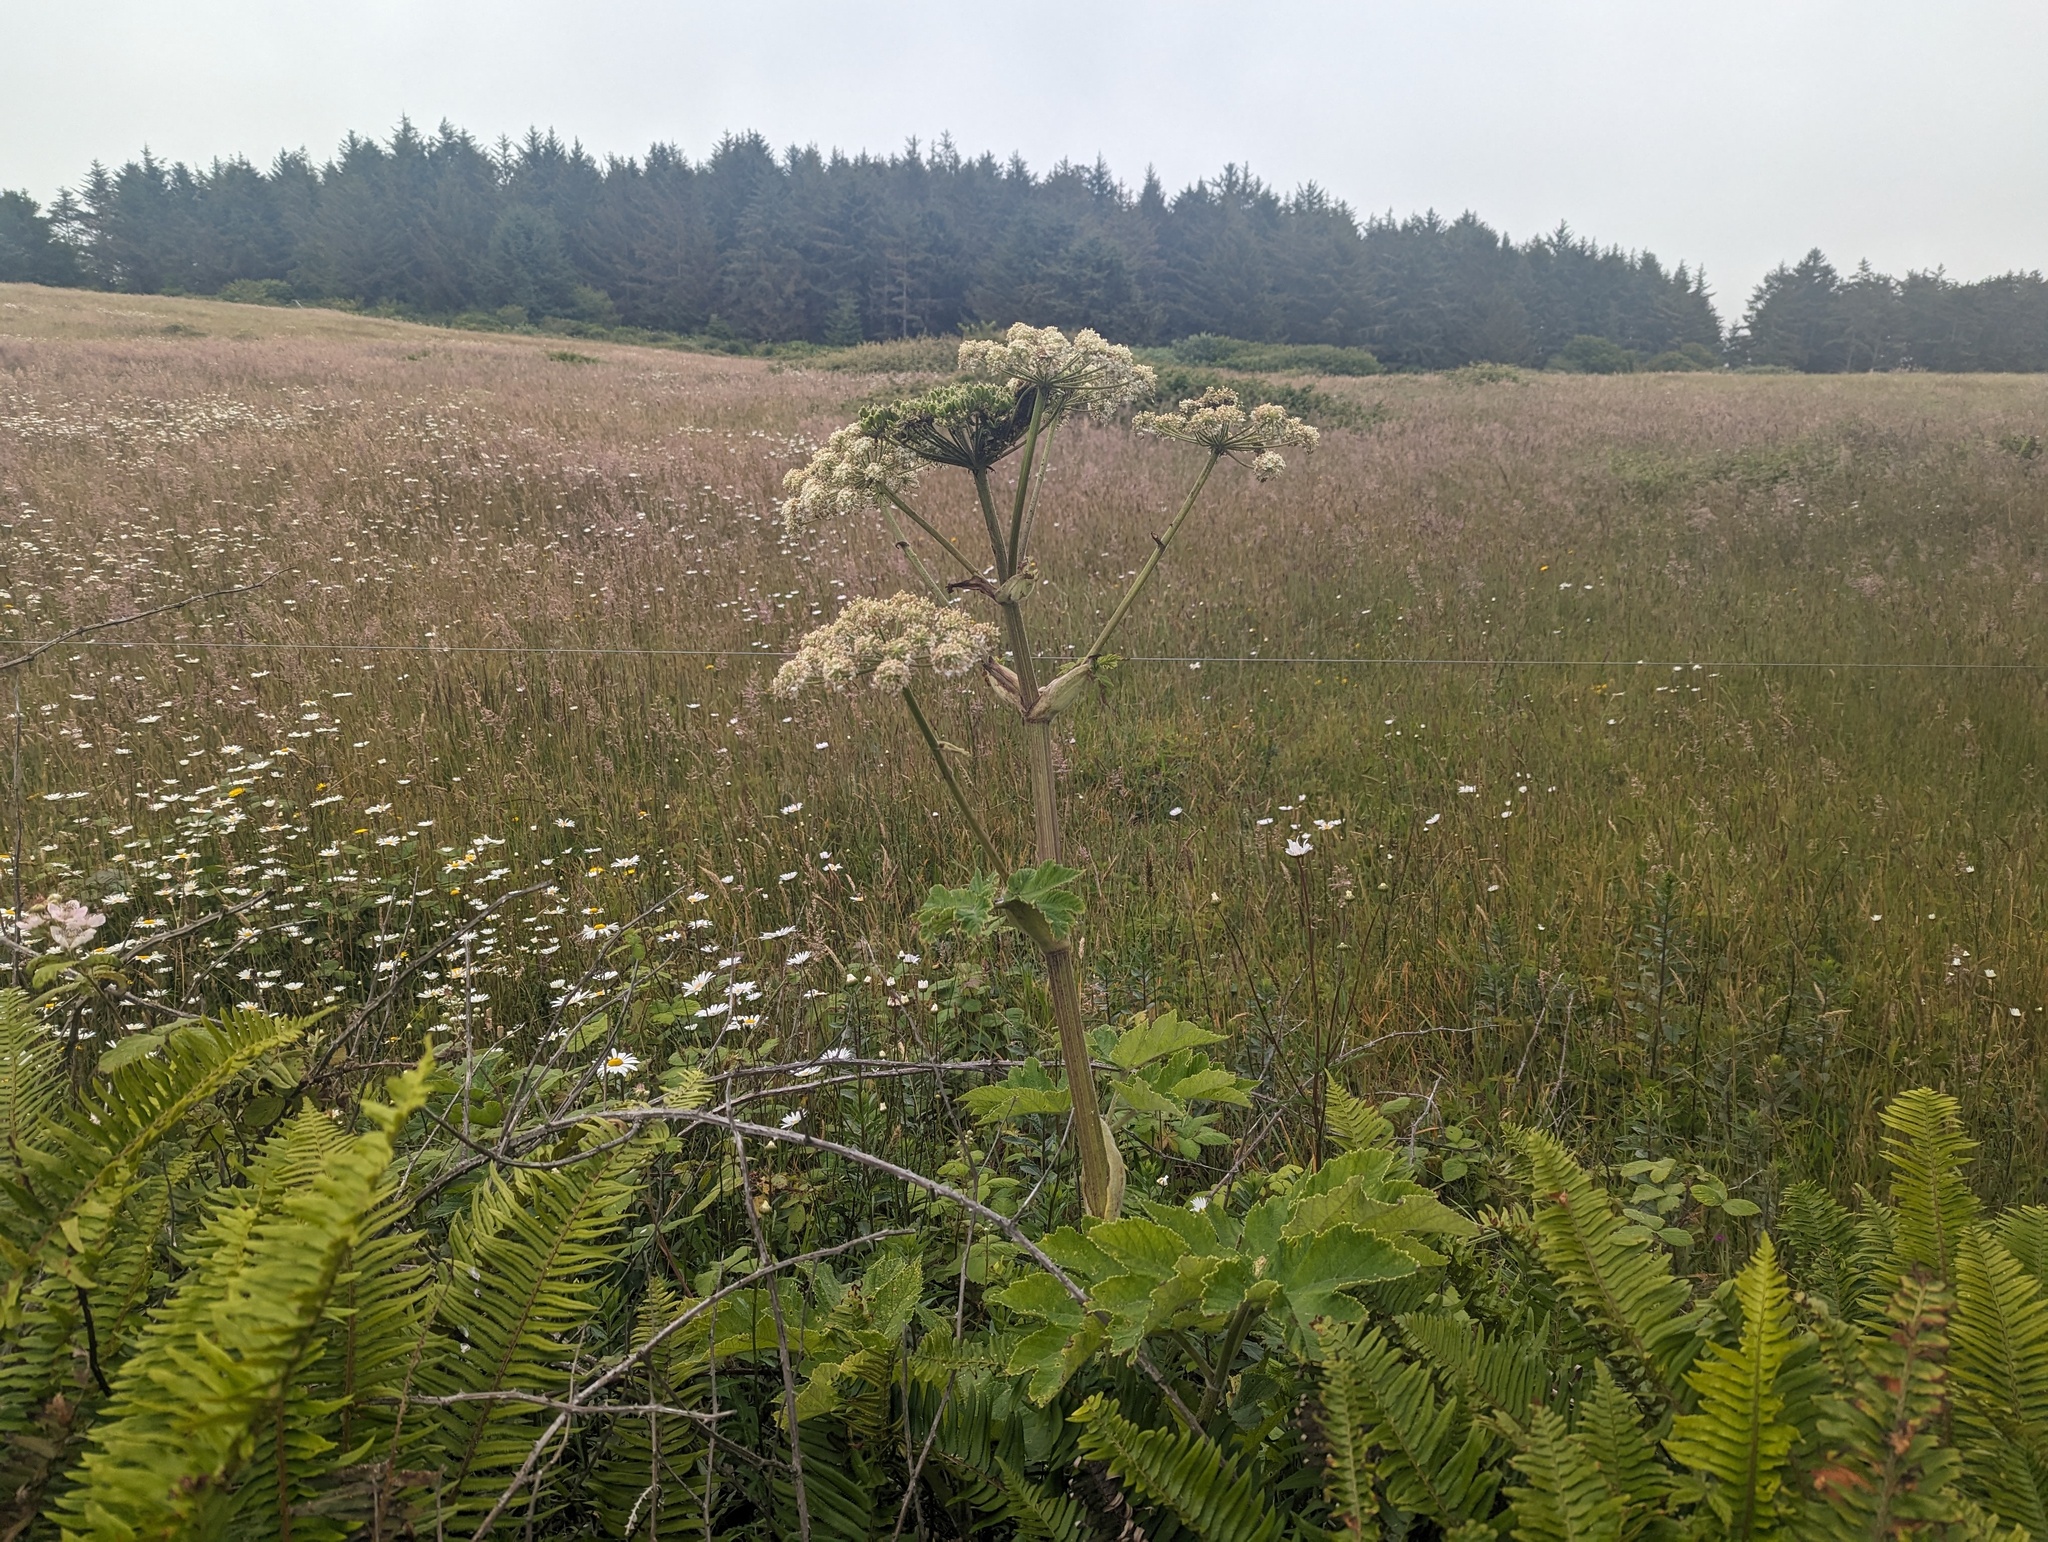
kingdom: Plantae
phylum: Tracheophyta
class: Magnoliopsida
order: Apiales
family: Apiaceae
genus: Heracleum
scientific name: Heracleum maximum
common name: American cow parsnip
